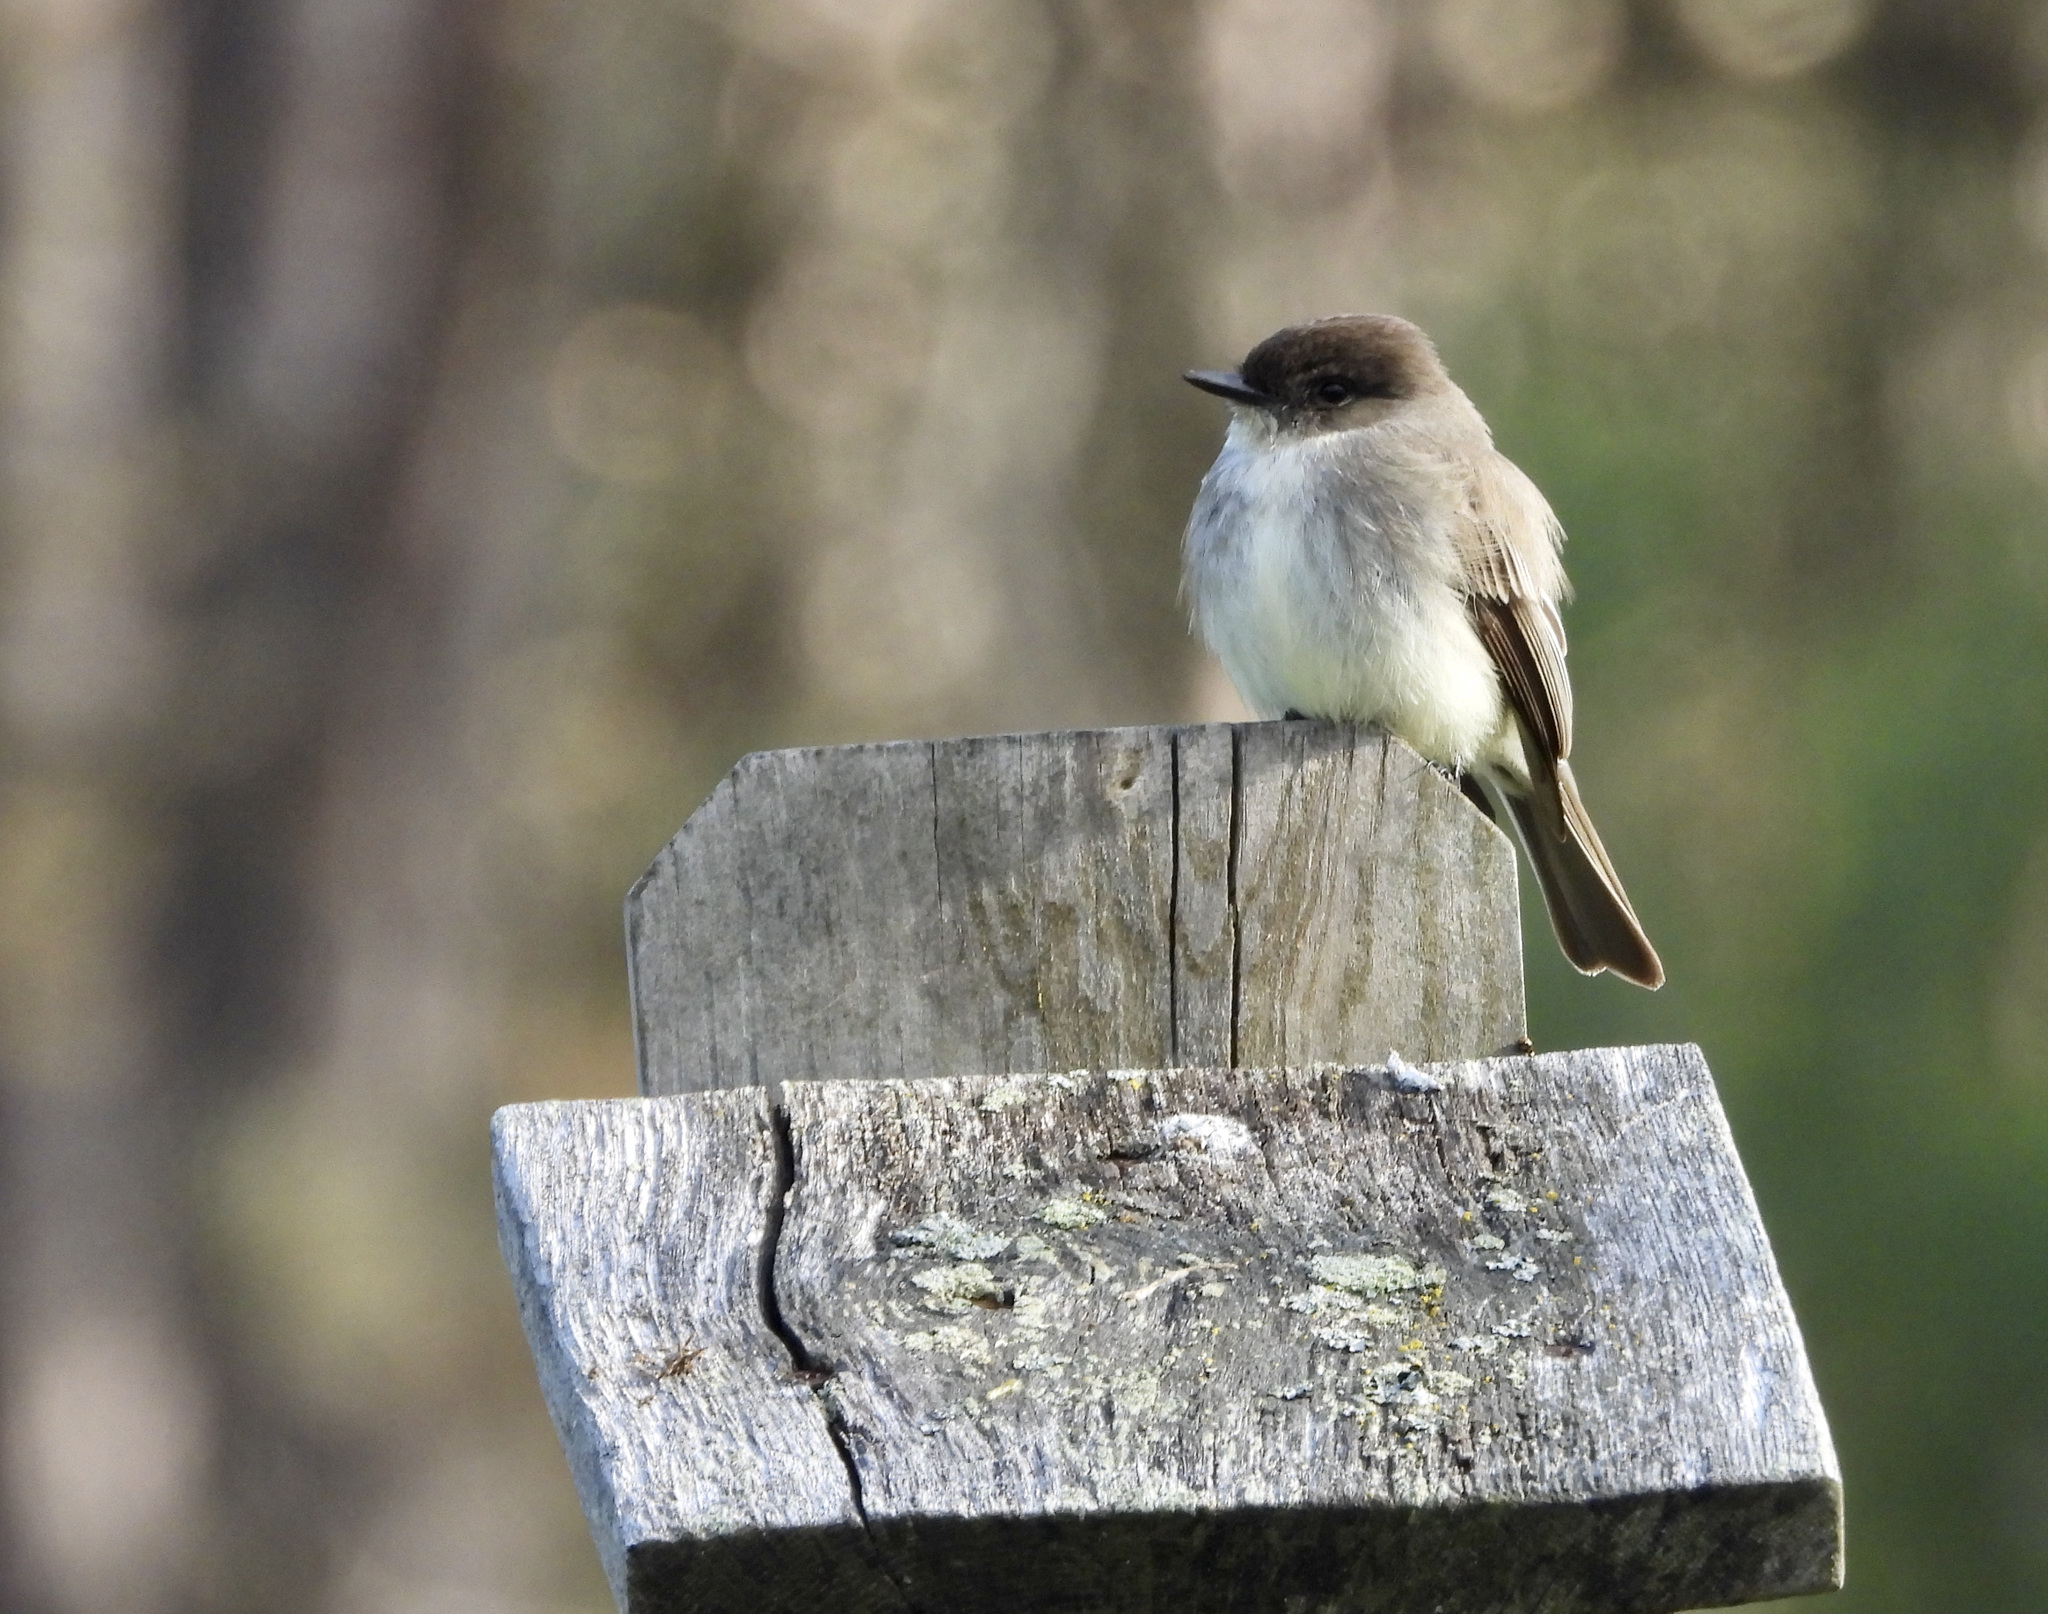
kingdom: Animalia
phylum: Chordata
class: Aves
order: Passeriformes
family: Tyrannidae
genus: Sayornis
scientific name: Sayornis phoebe
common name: Eastern phoebe
